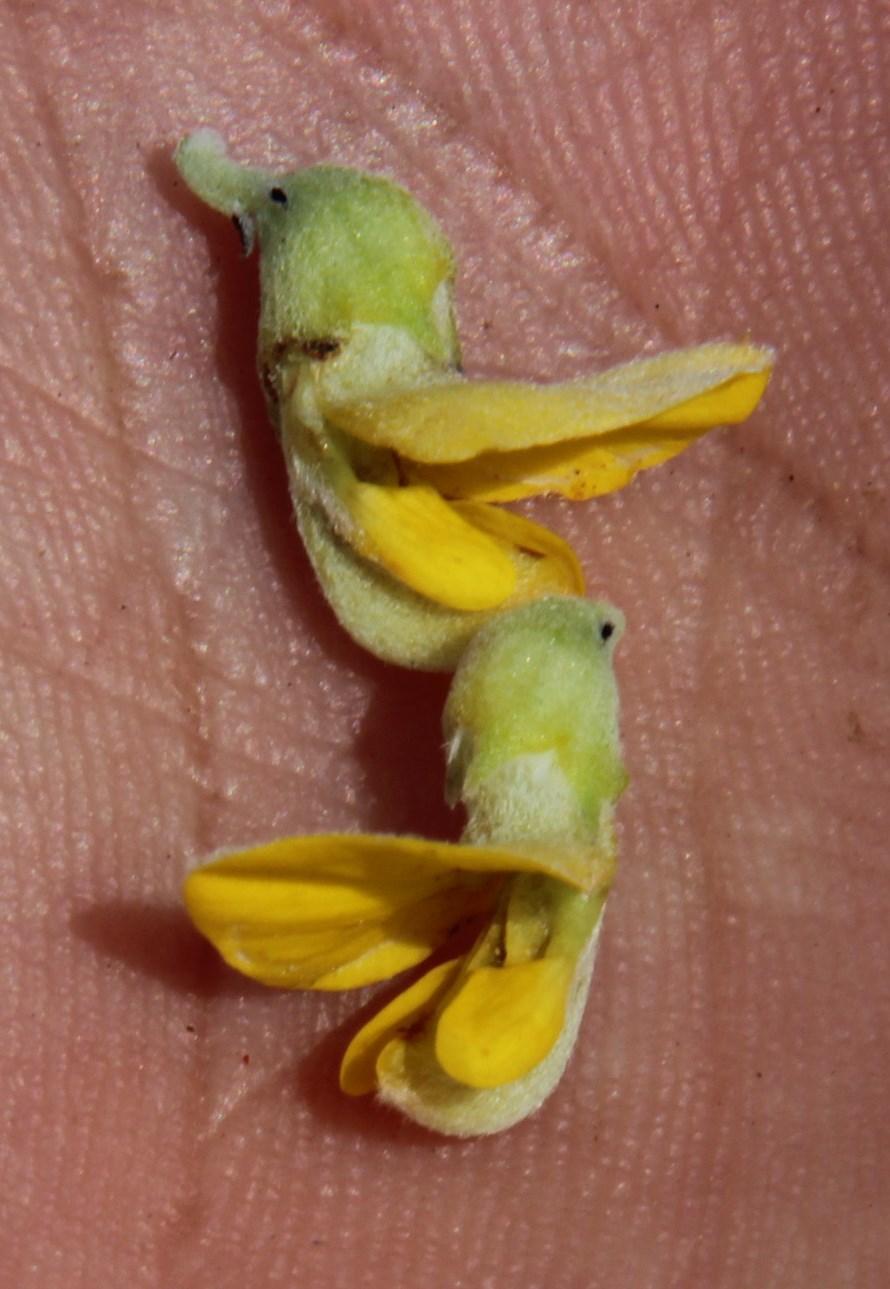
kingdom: Plantae
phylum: Tracheophyta
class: Magnoliopsida
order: Fabales
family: Fabaceae
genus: Aspalathus
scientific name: Aspalathus burchelliana
